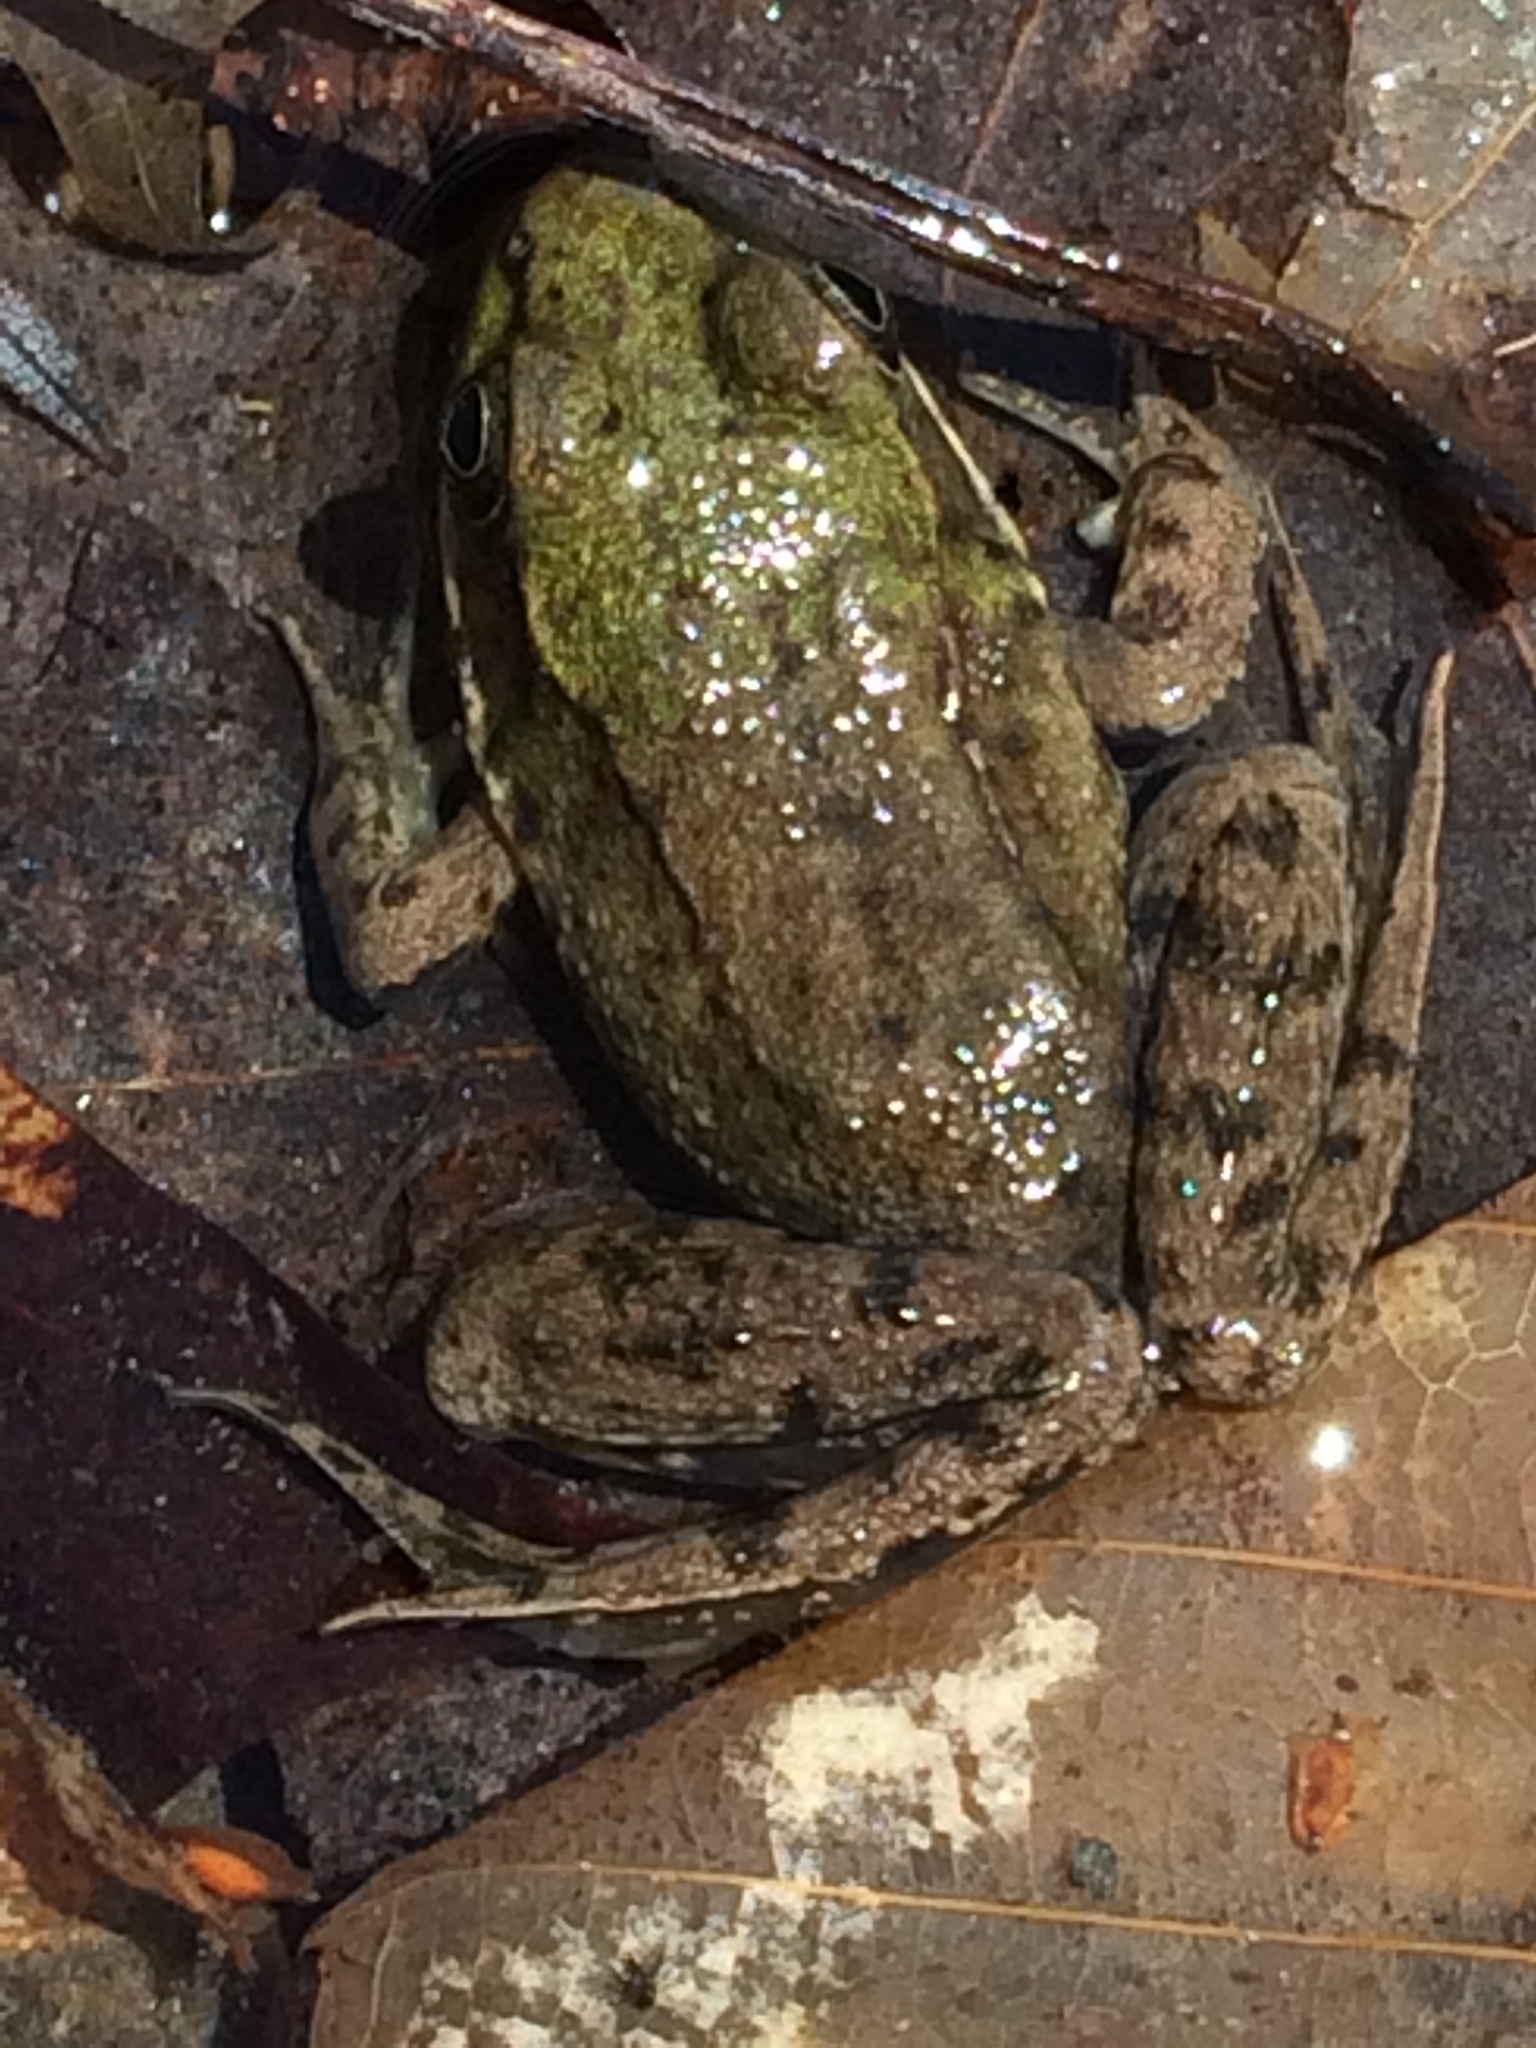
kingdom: Animalia
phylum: Chordata
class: Amphibia
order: Anura
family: Ranidae
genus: Lithobates
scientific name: Lithobates clamitans
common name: Green frog
